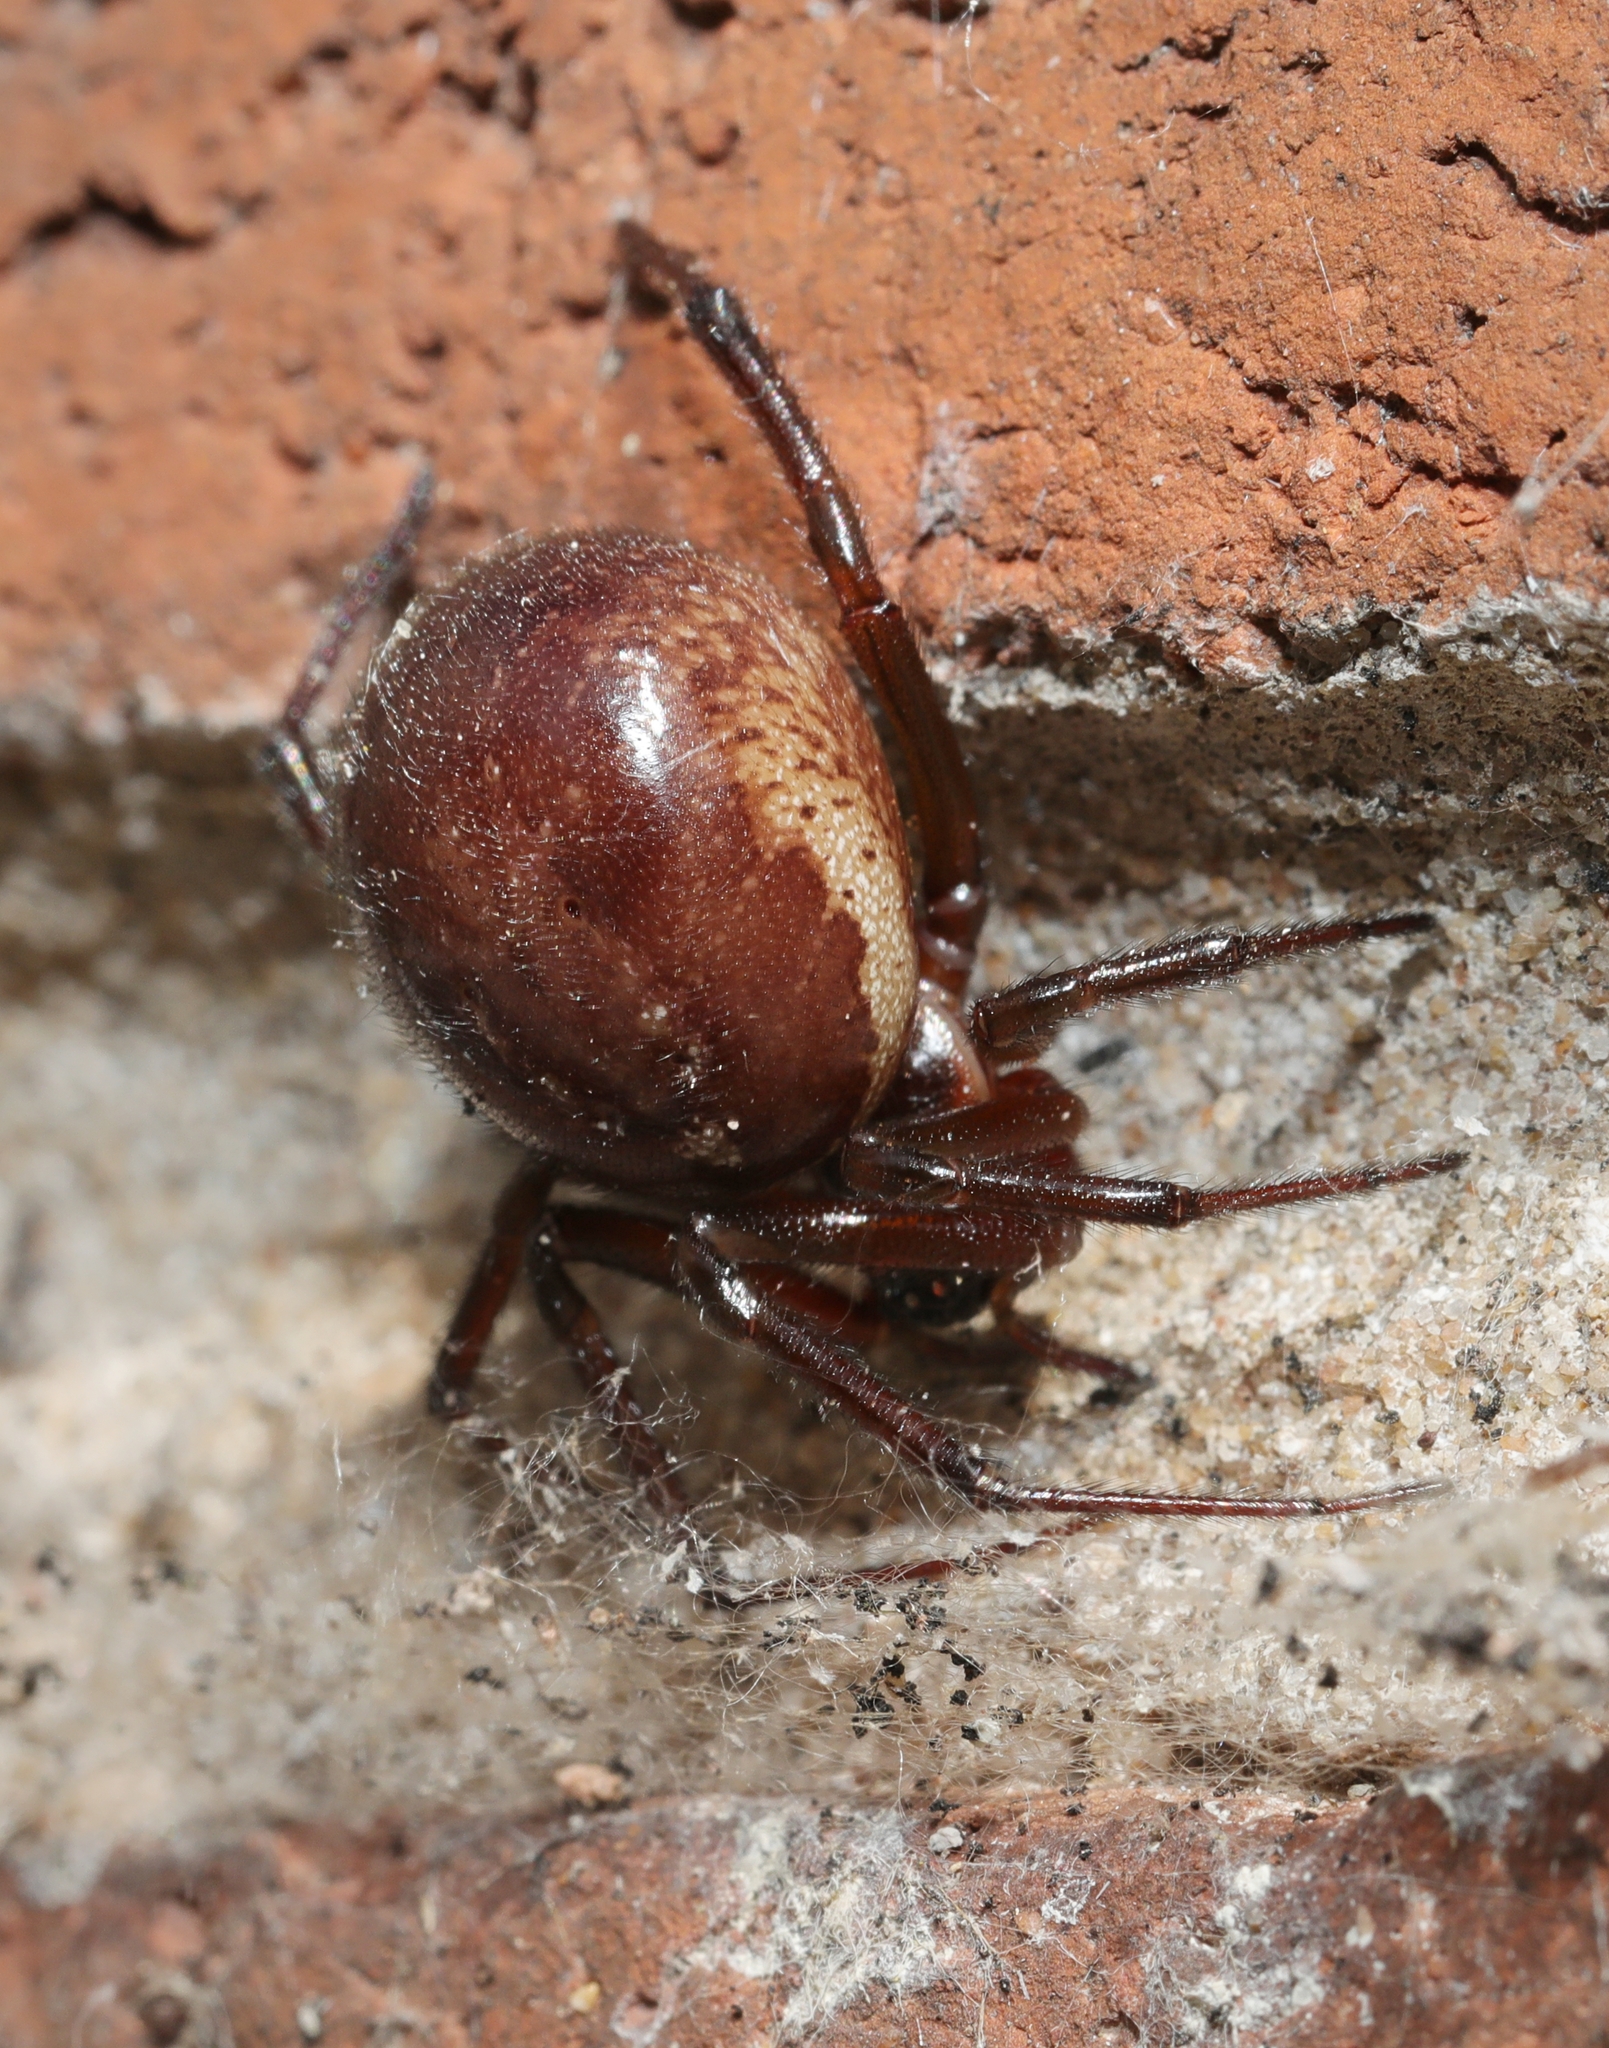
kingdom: Animalia
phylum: Arthropoda
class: Arachnida
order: Araneae
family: Theridiidae
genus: Steatoda
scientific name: Steatoda nobilis
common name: Cobweb weaver
